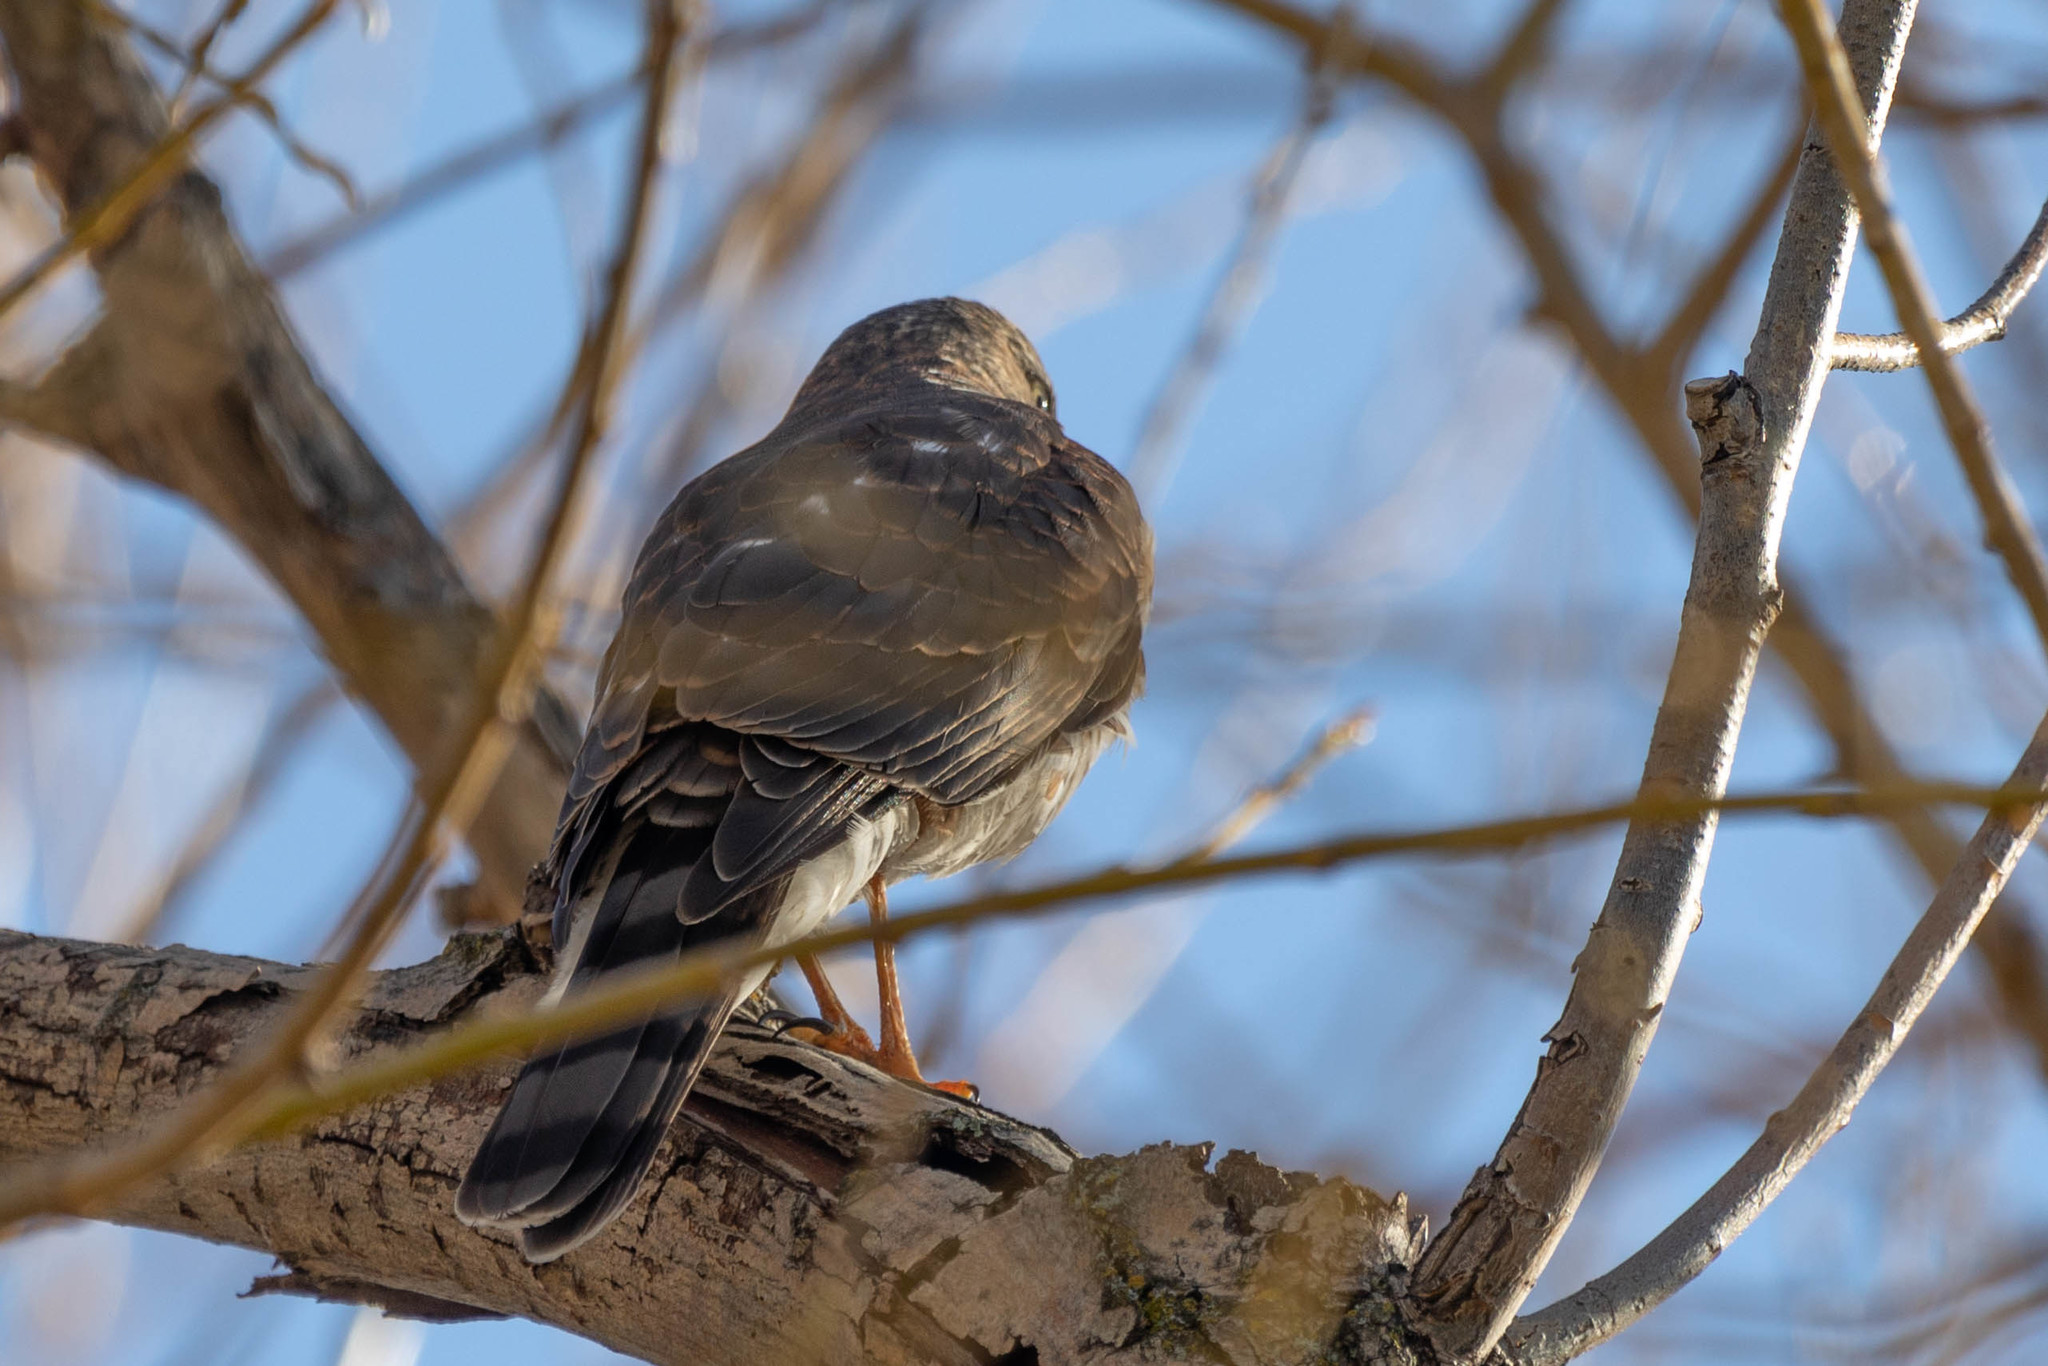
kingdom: Animalia
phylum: Chordata
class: Aves
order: Accipitriformes
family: Accipitridae
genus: Accipiter
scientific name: Accipiter striatus
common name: Sharp-shinned hawk
